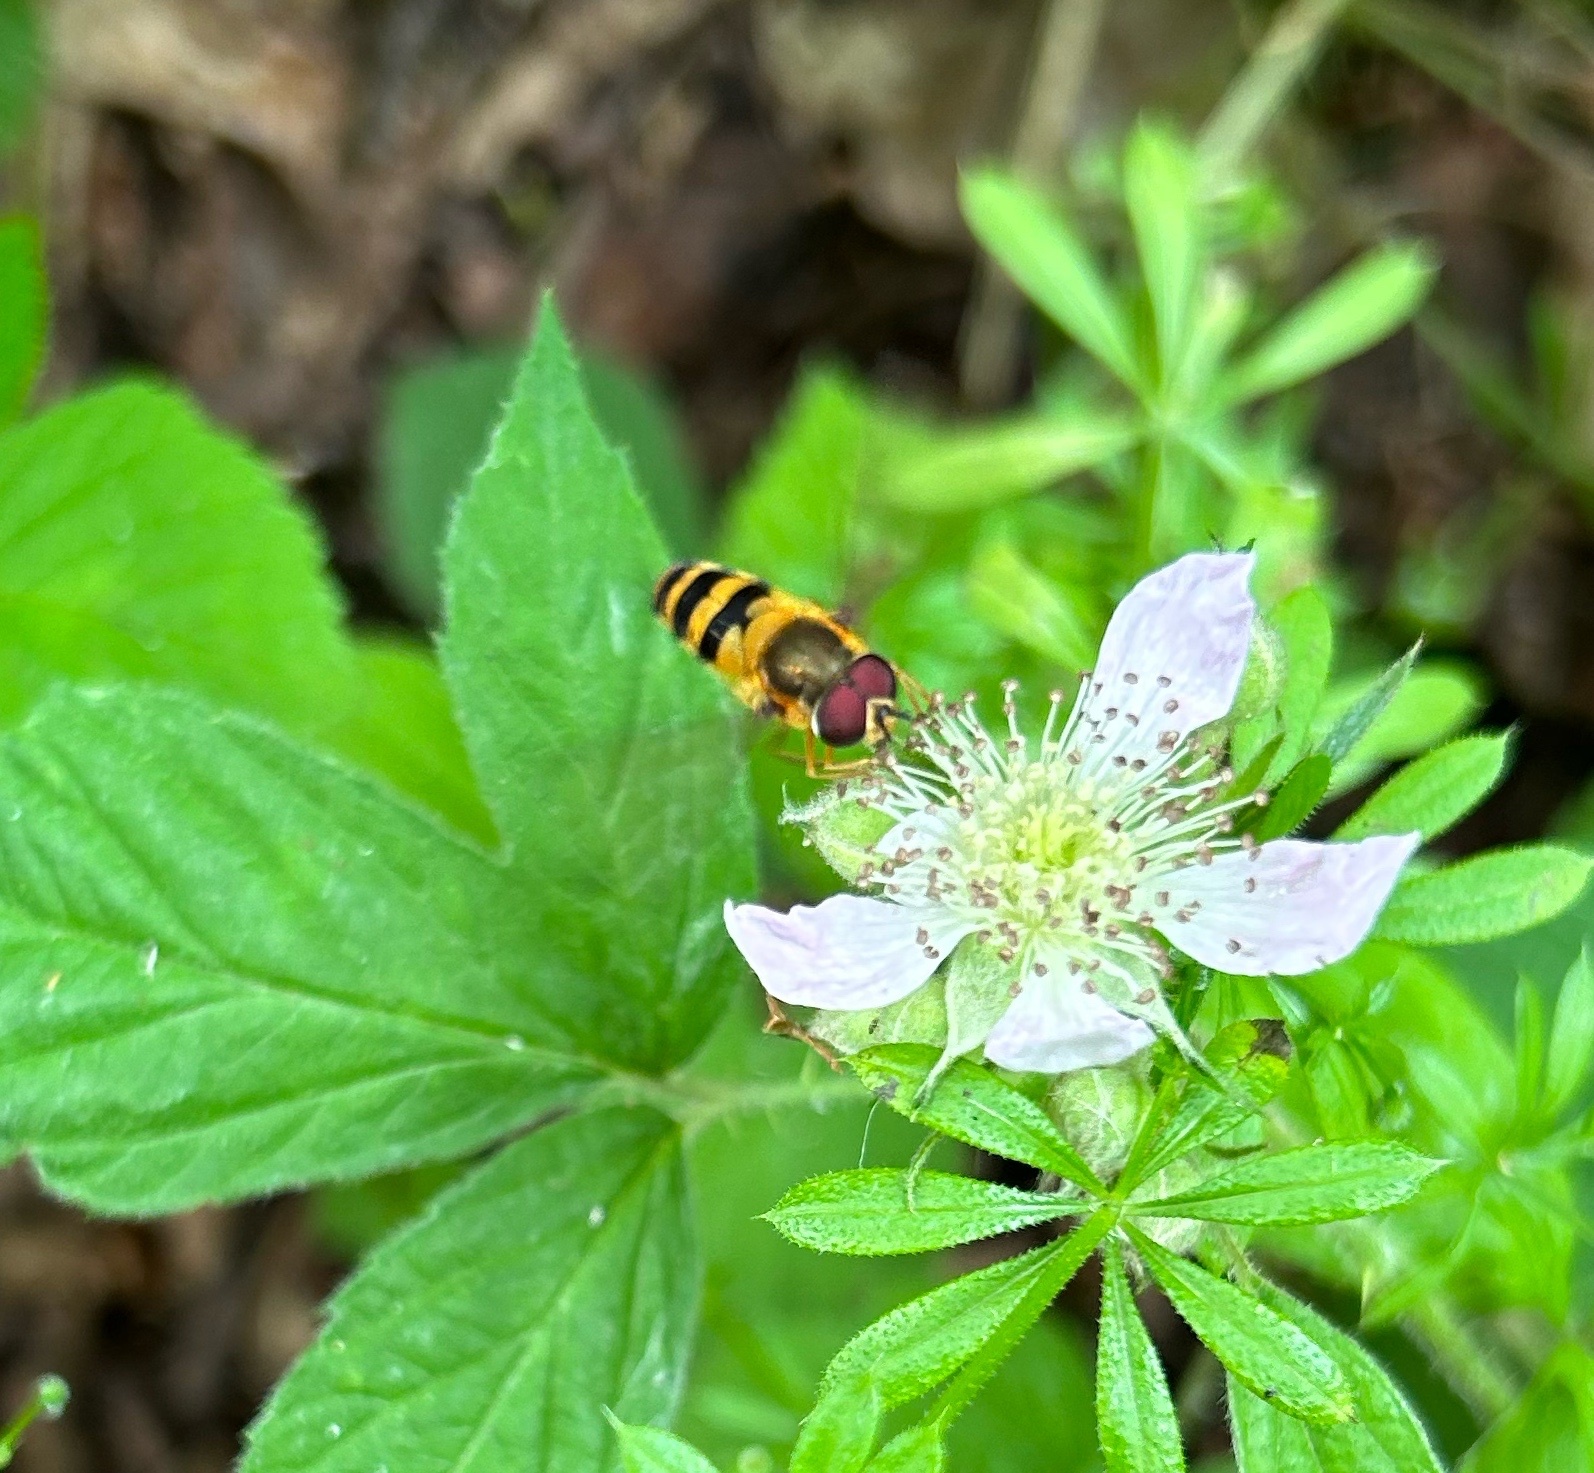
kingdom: Animalia
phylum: Arthropoda
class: Insecta
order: Diptera
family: Syrphidae
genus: Epistrophe
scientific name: Epistrophe grossulariae
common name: Black-horned smoothtail
